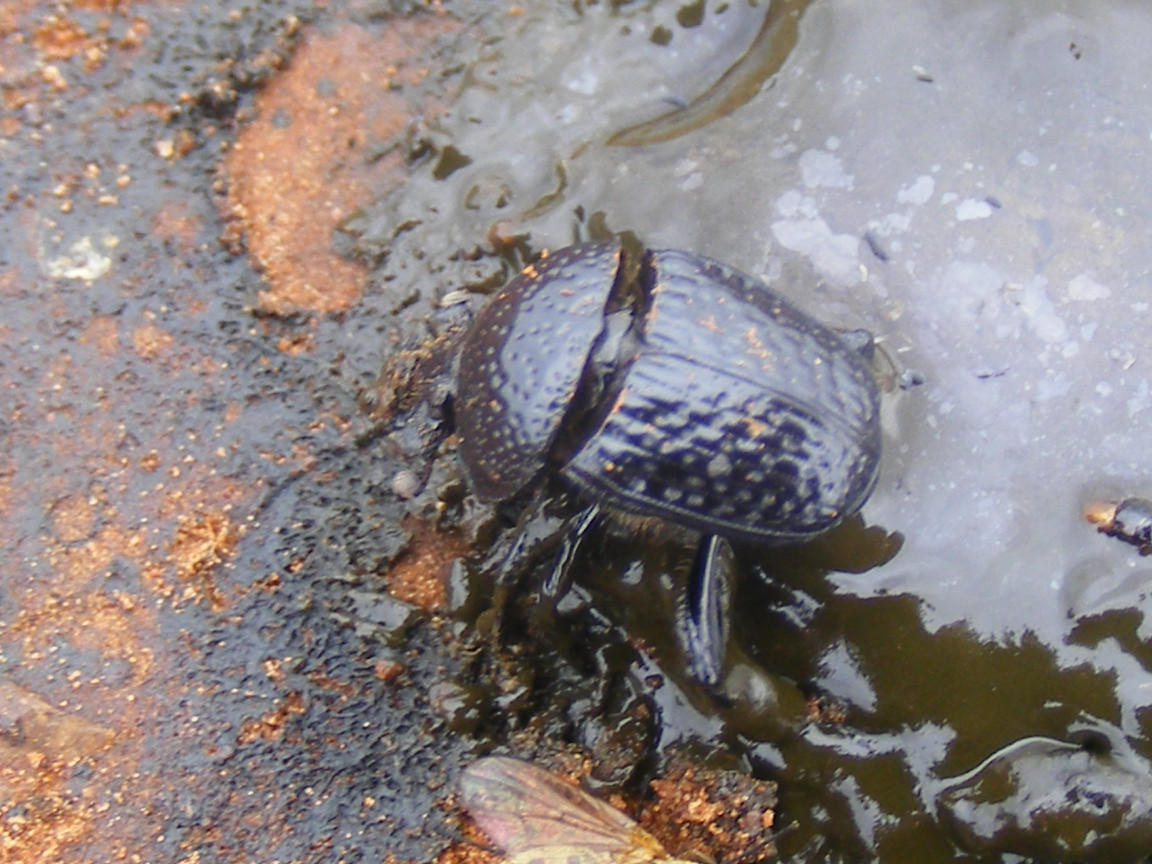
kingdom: Animalia
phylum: Arthropoda
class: Insecta
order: Coleoptera
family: Scarabaeidae
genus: Scarabaeolus
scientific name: Scarabaeolus bohemani
